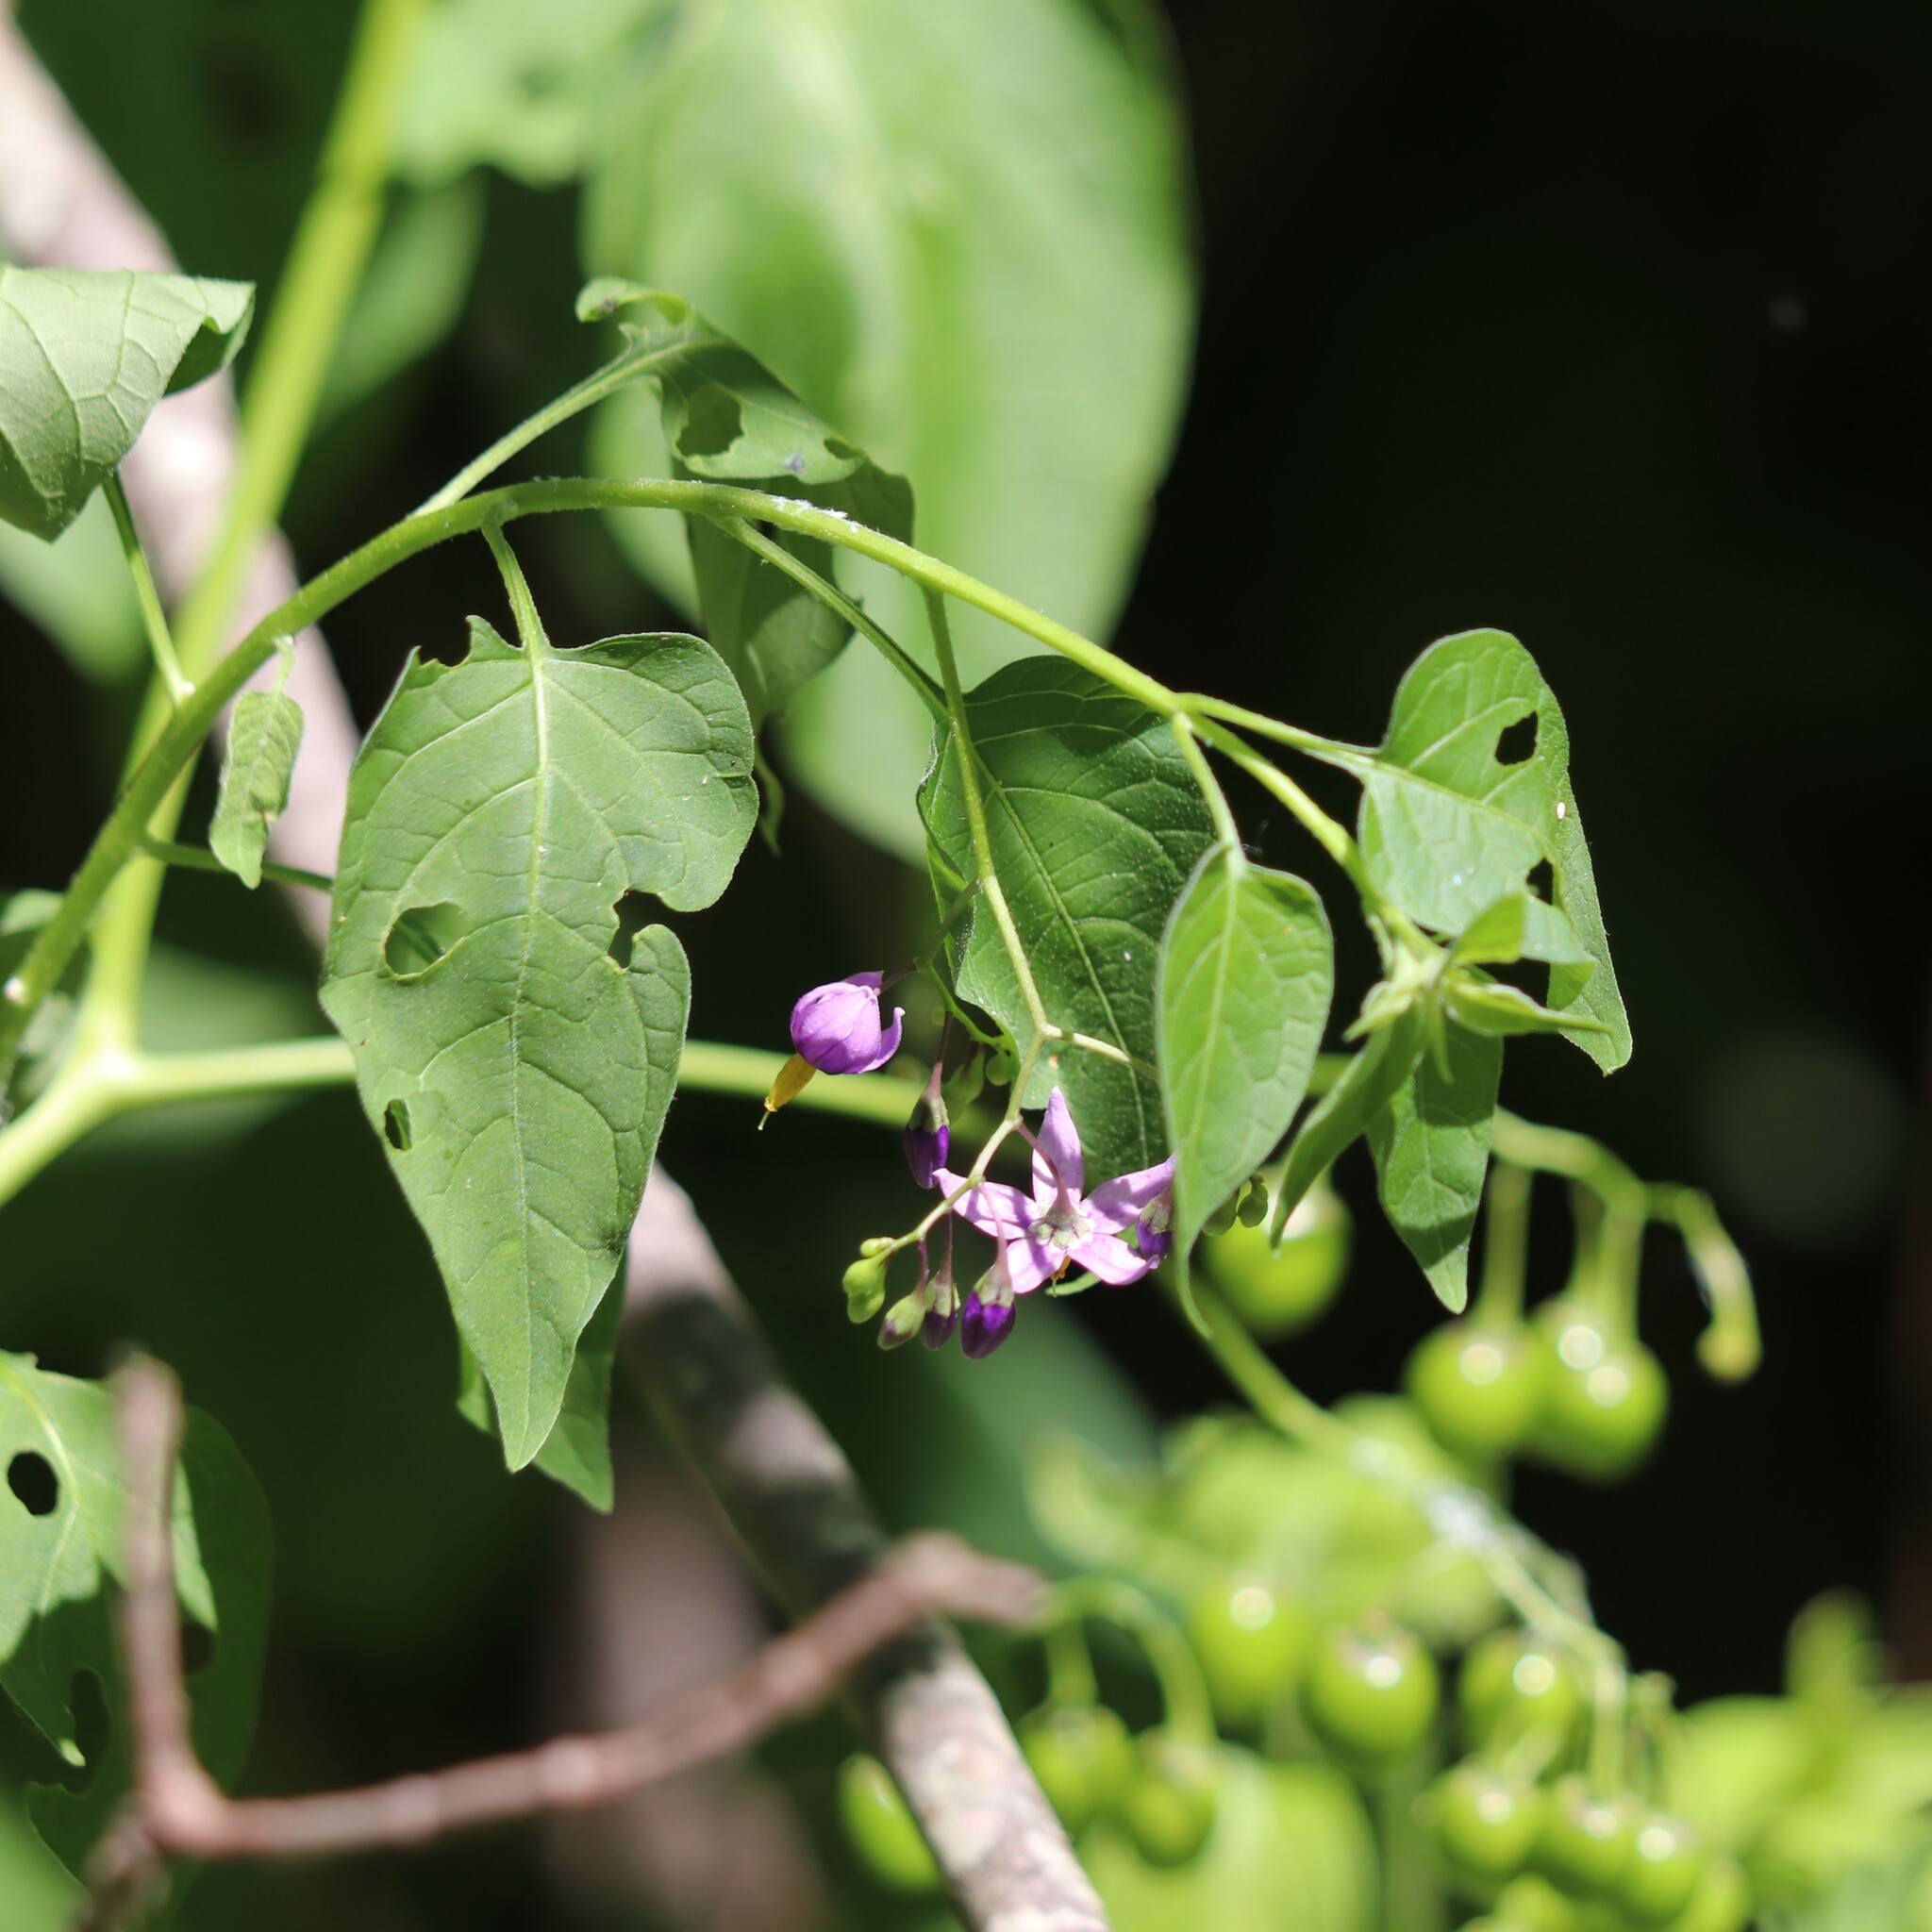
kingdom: Plantae
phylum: Tracheophyta
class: Magnoliopsida
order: Solanales
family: Solanaceae
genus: Solanum
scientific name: Solanum dulcamara
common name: Climbing nightshade
